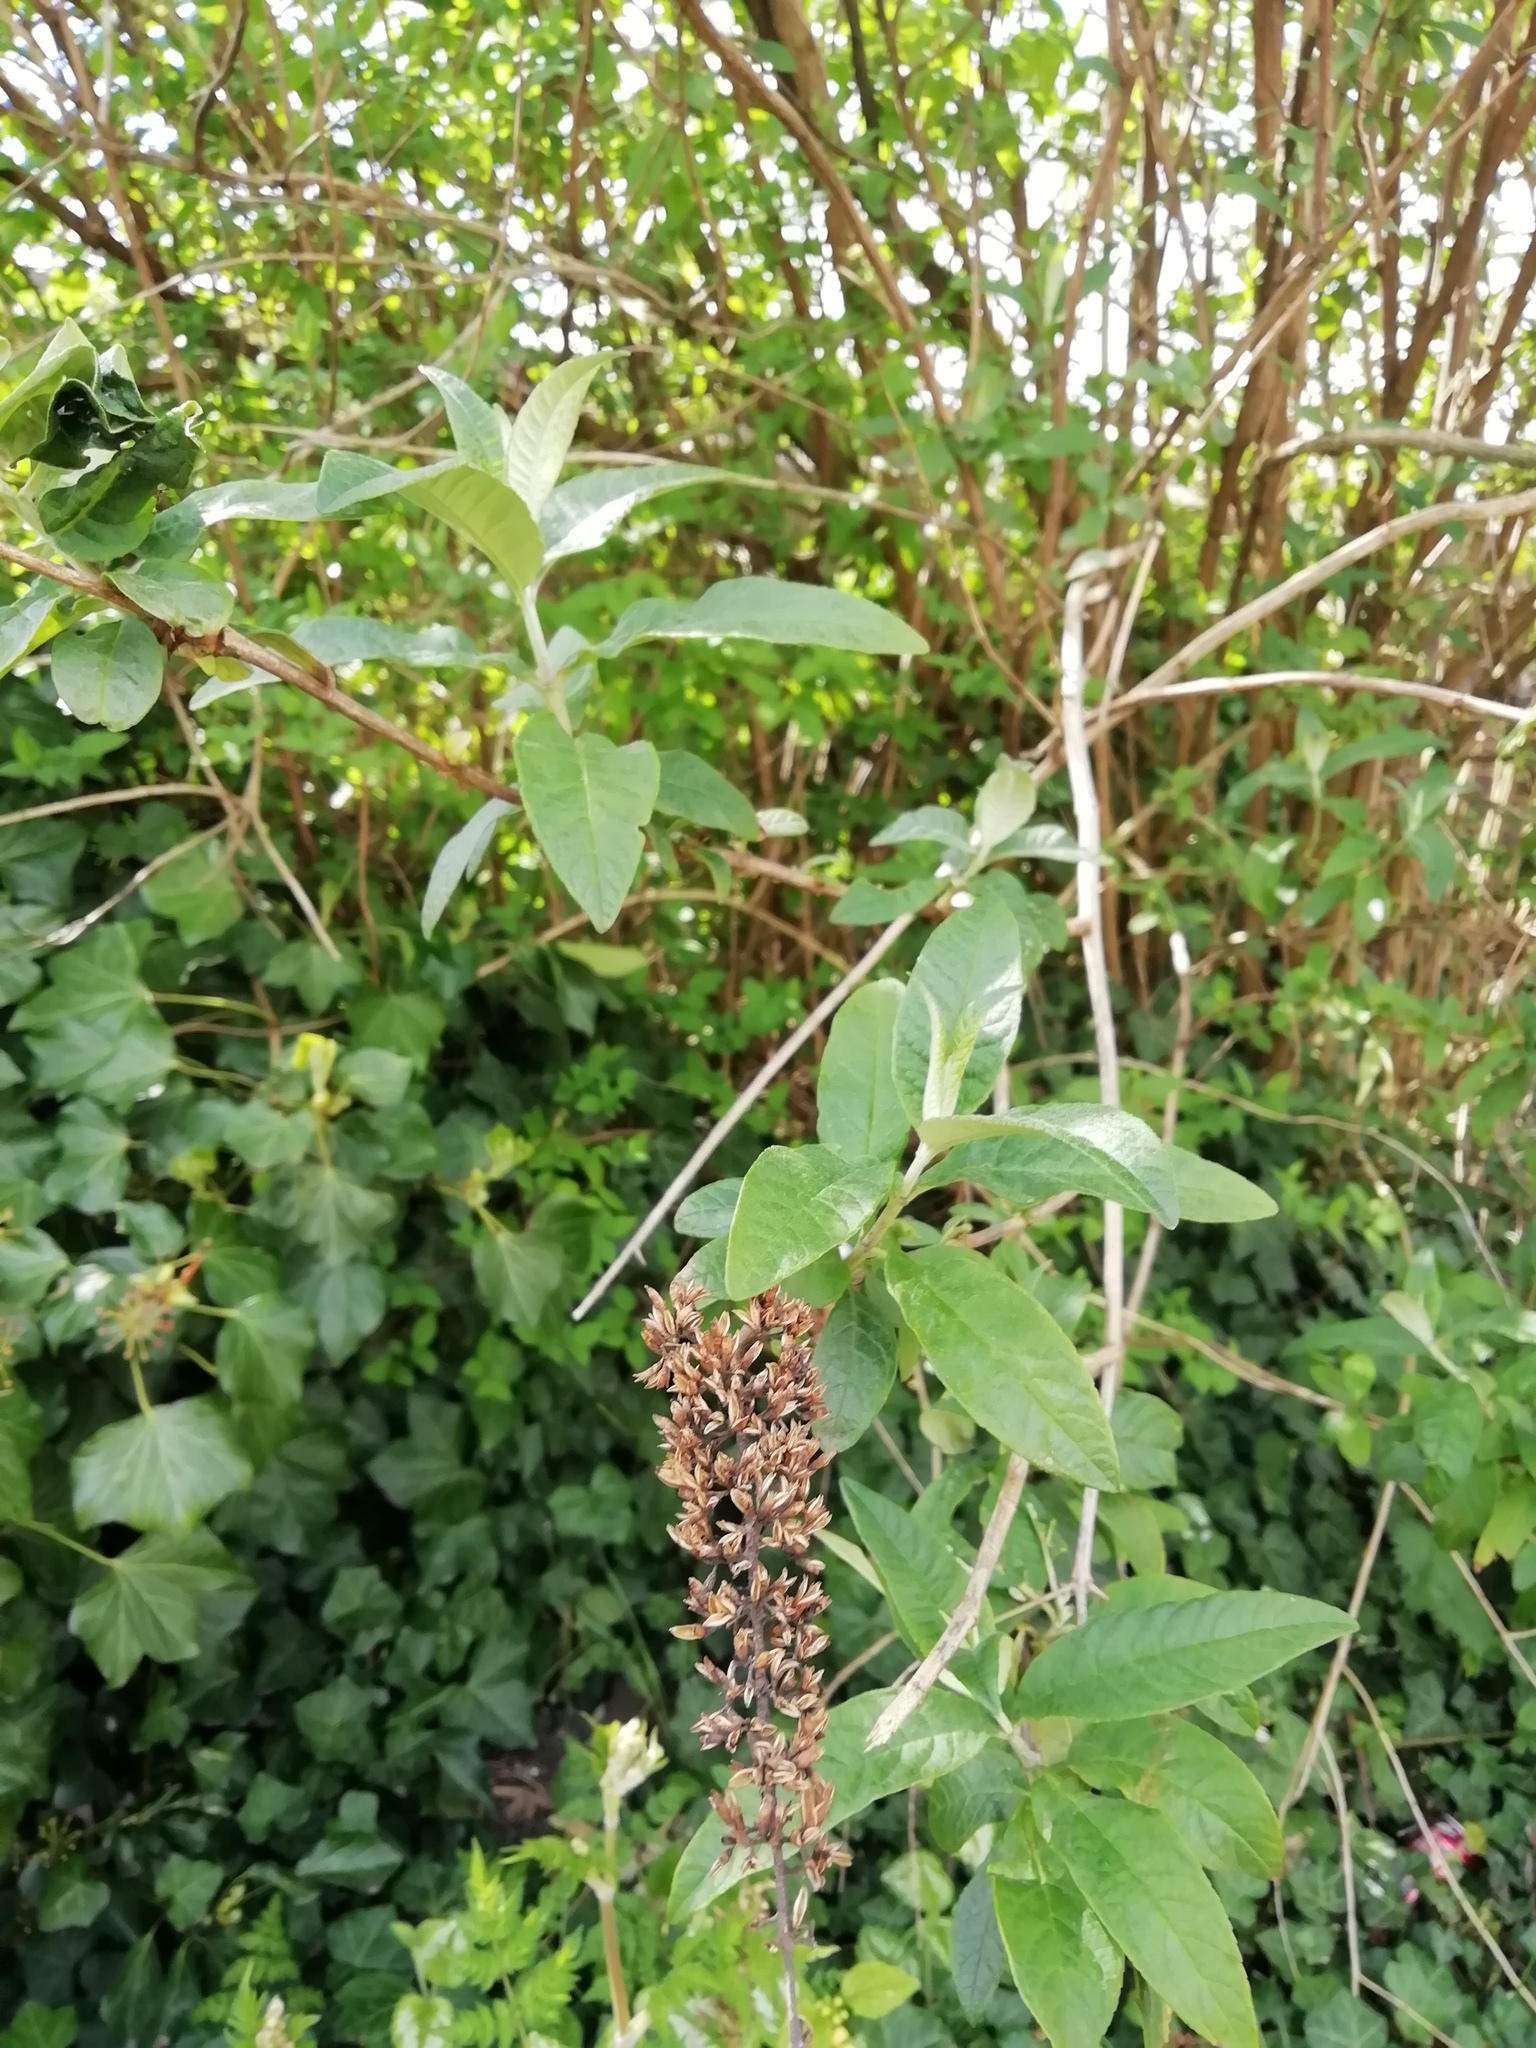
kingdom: Plantae
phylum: Tracheophyta
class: Magnoliopsida
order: Lamiales
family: Scrophulariaceae
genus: Buddleja
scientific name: Buddleja davidii
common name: Butterfly-bush
